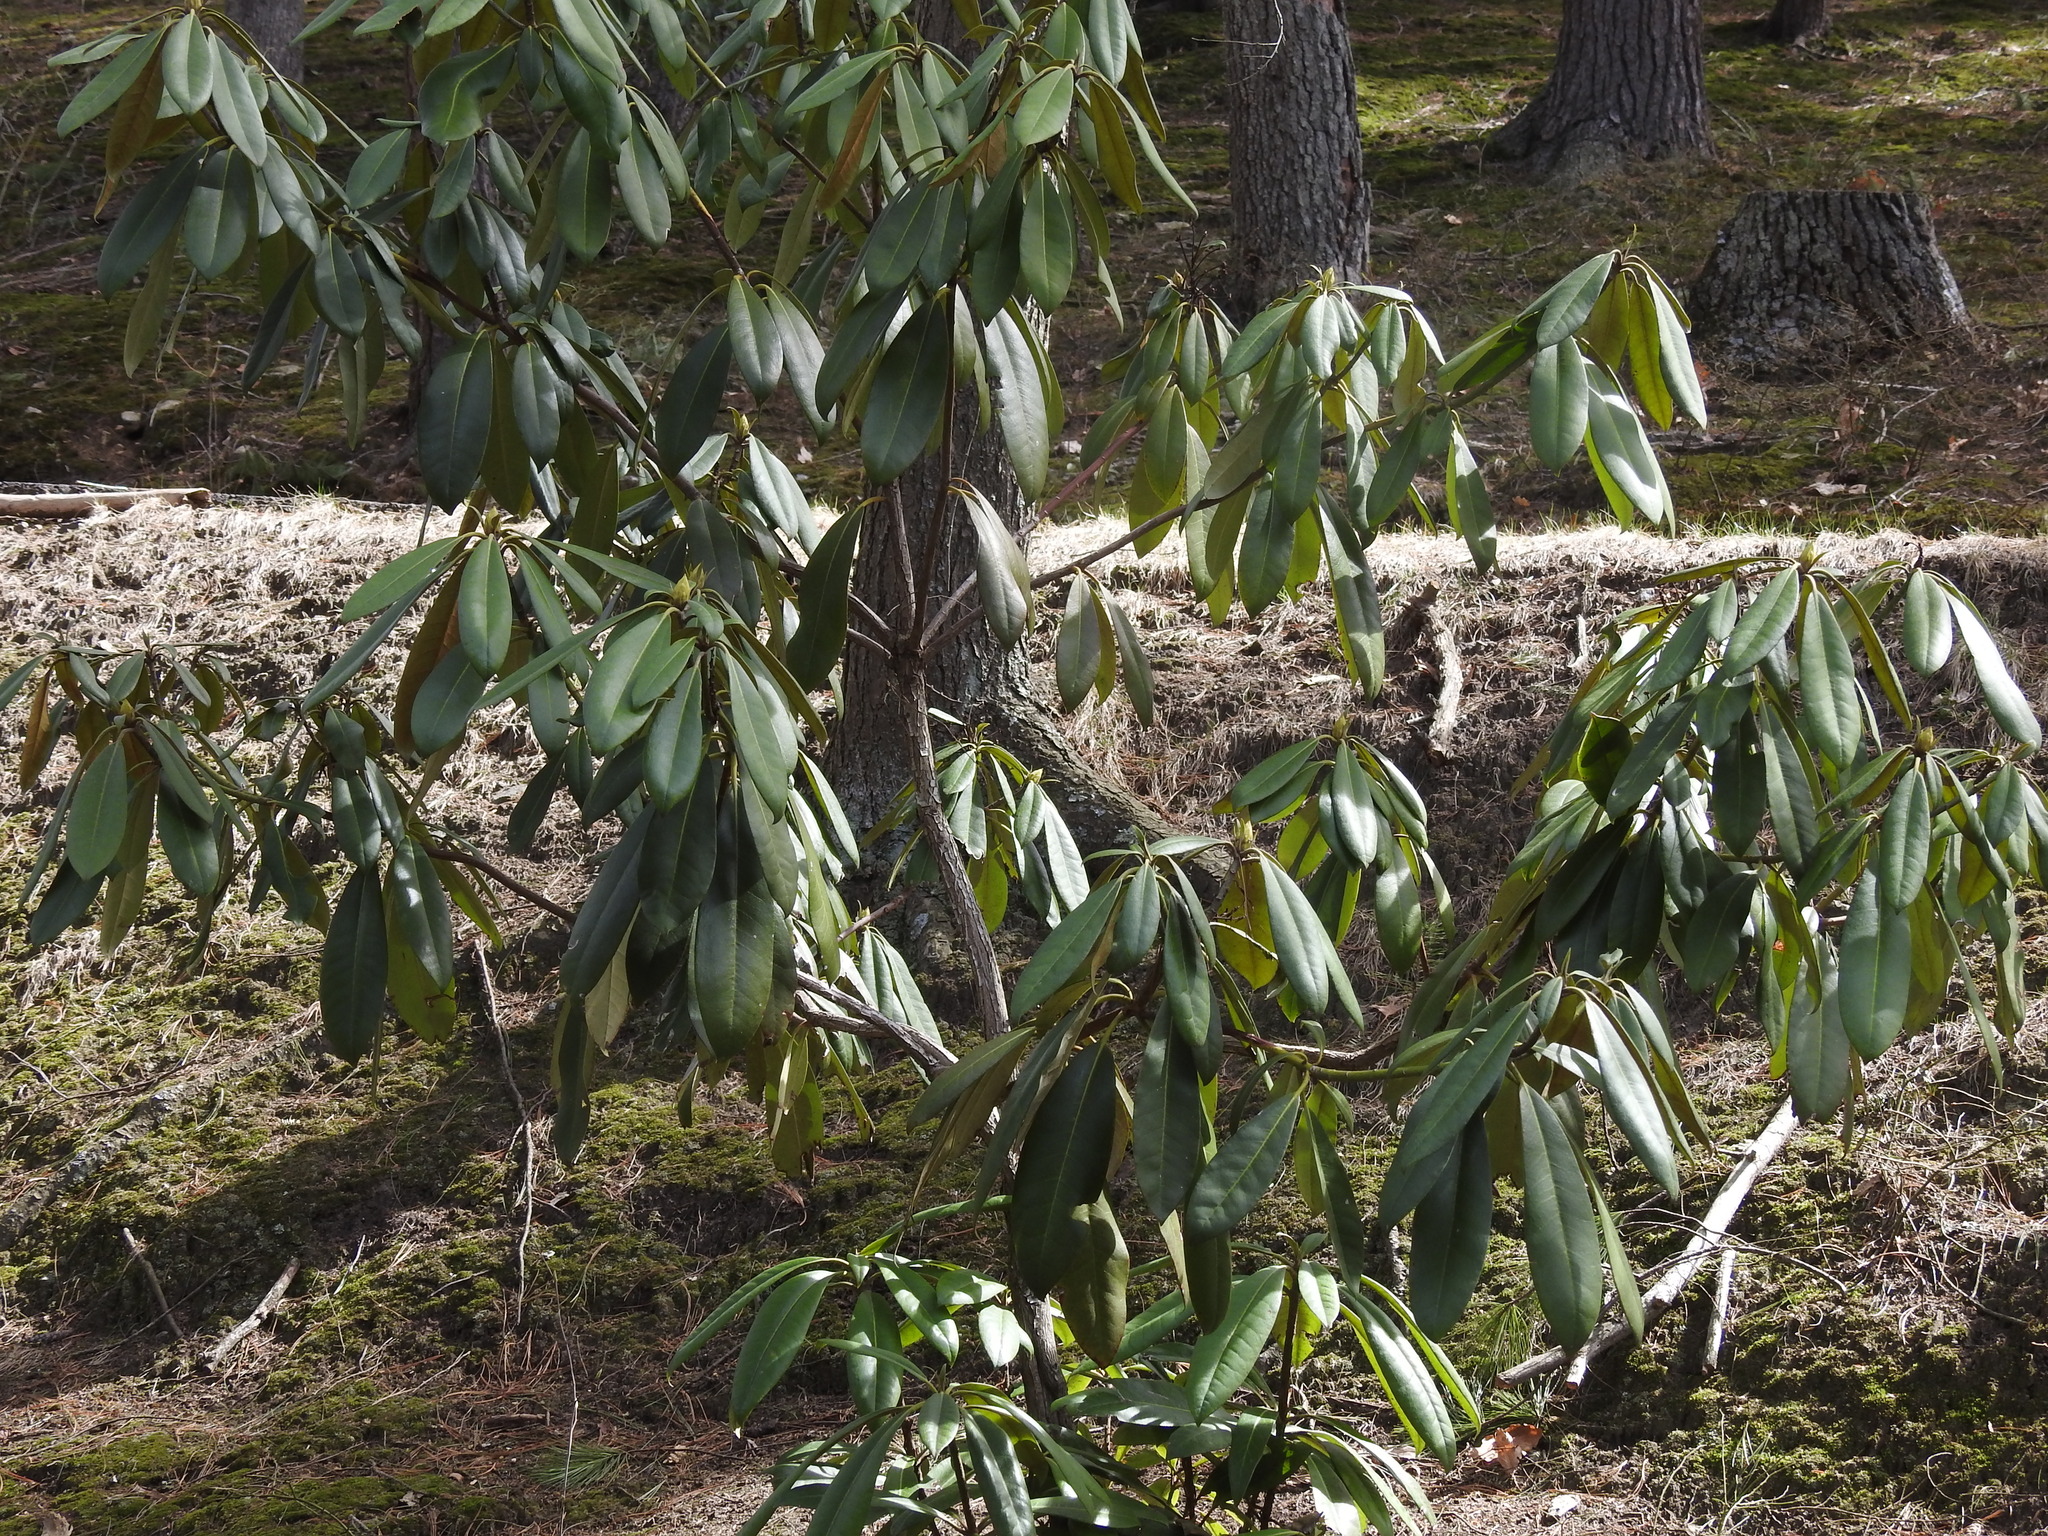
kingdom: Plantae
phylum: Tracheophyta
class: Magnoliopsida
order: Ericales
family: Ericaceae
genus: Rhododendron
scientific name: Rhododendron maximum
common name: Great rhododendron
